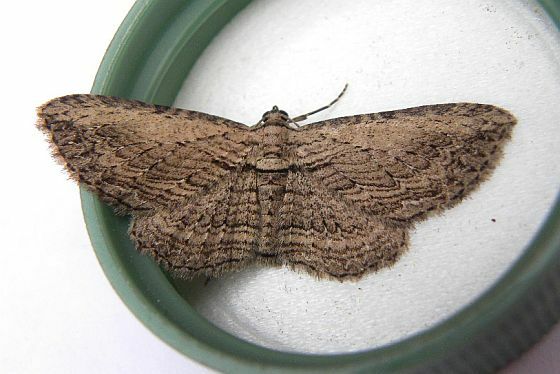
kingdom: Animalia
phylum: Arthropoda
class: Insecta
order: Lepidoptera
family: Geometridae
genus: Horisme
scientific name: Horisme intestinata
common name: Brown bark carpet
